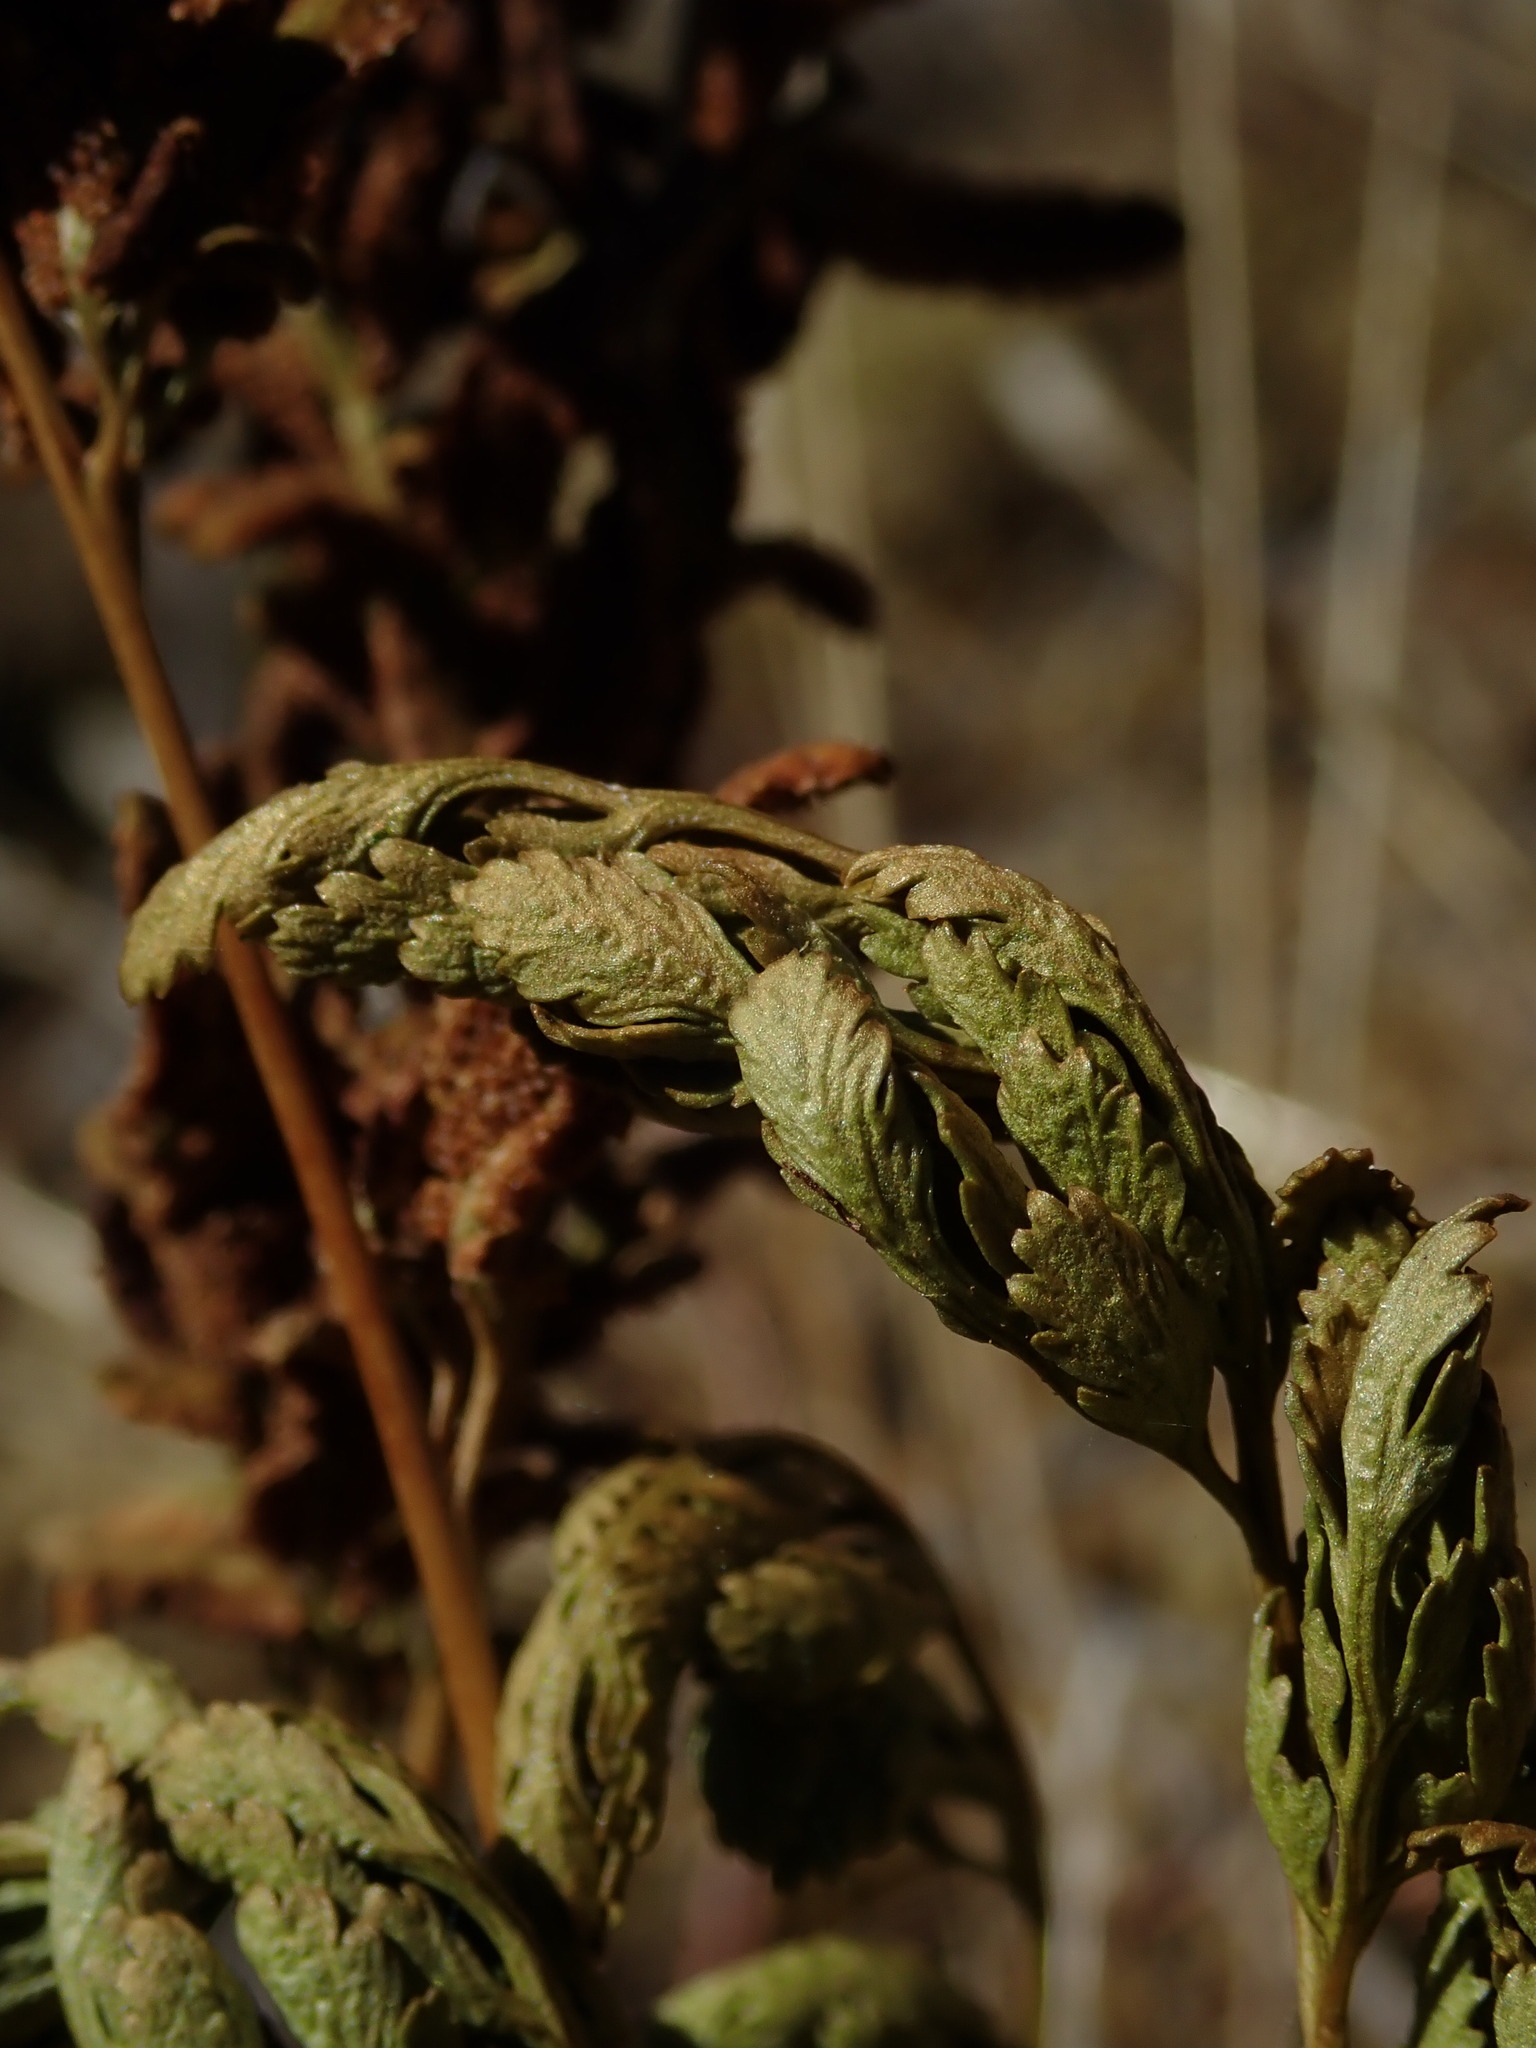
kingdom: Plantae
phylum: Tracheophyta
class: Polypodiopsida
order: Polypodiales
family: Pteridaceae
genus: Cryptogramma
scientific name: Cryptogramma acrostichoides
